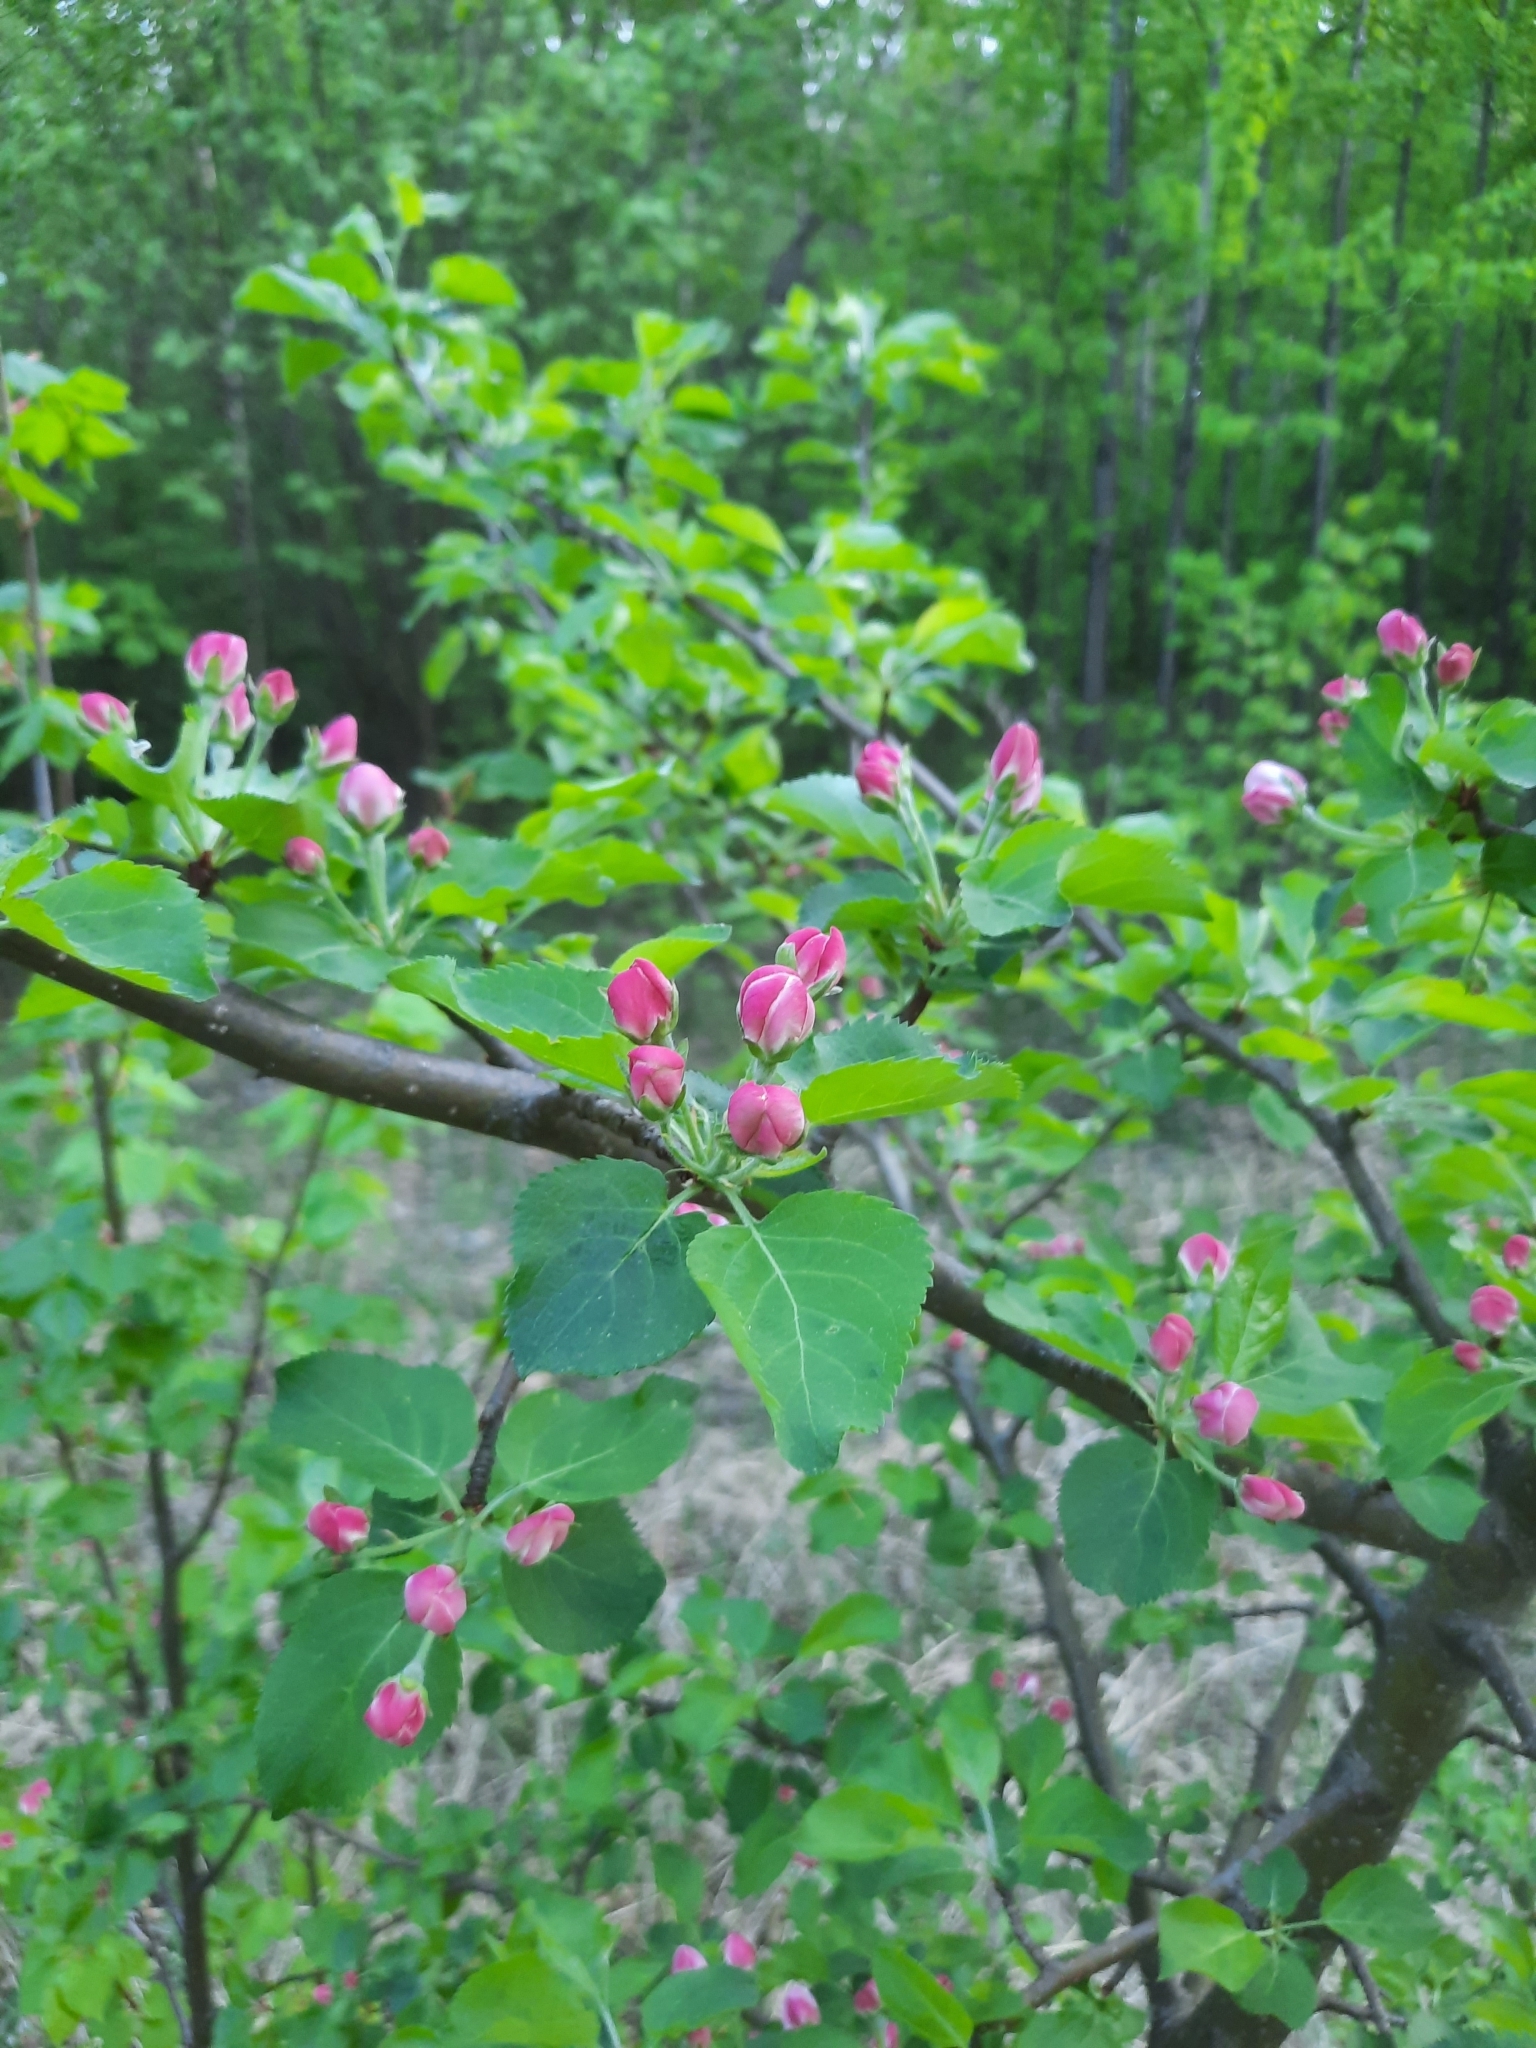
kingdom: Plantae
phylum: Tracheophyta
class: Magnoliopsida
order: Rosales
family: Rosaceae
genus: Malus
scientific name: Malus domestica
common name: Apple
